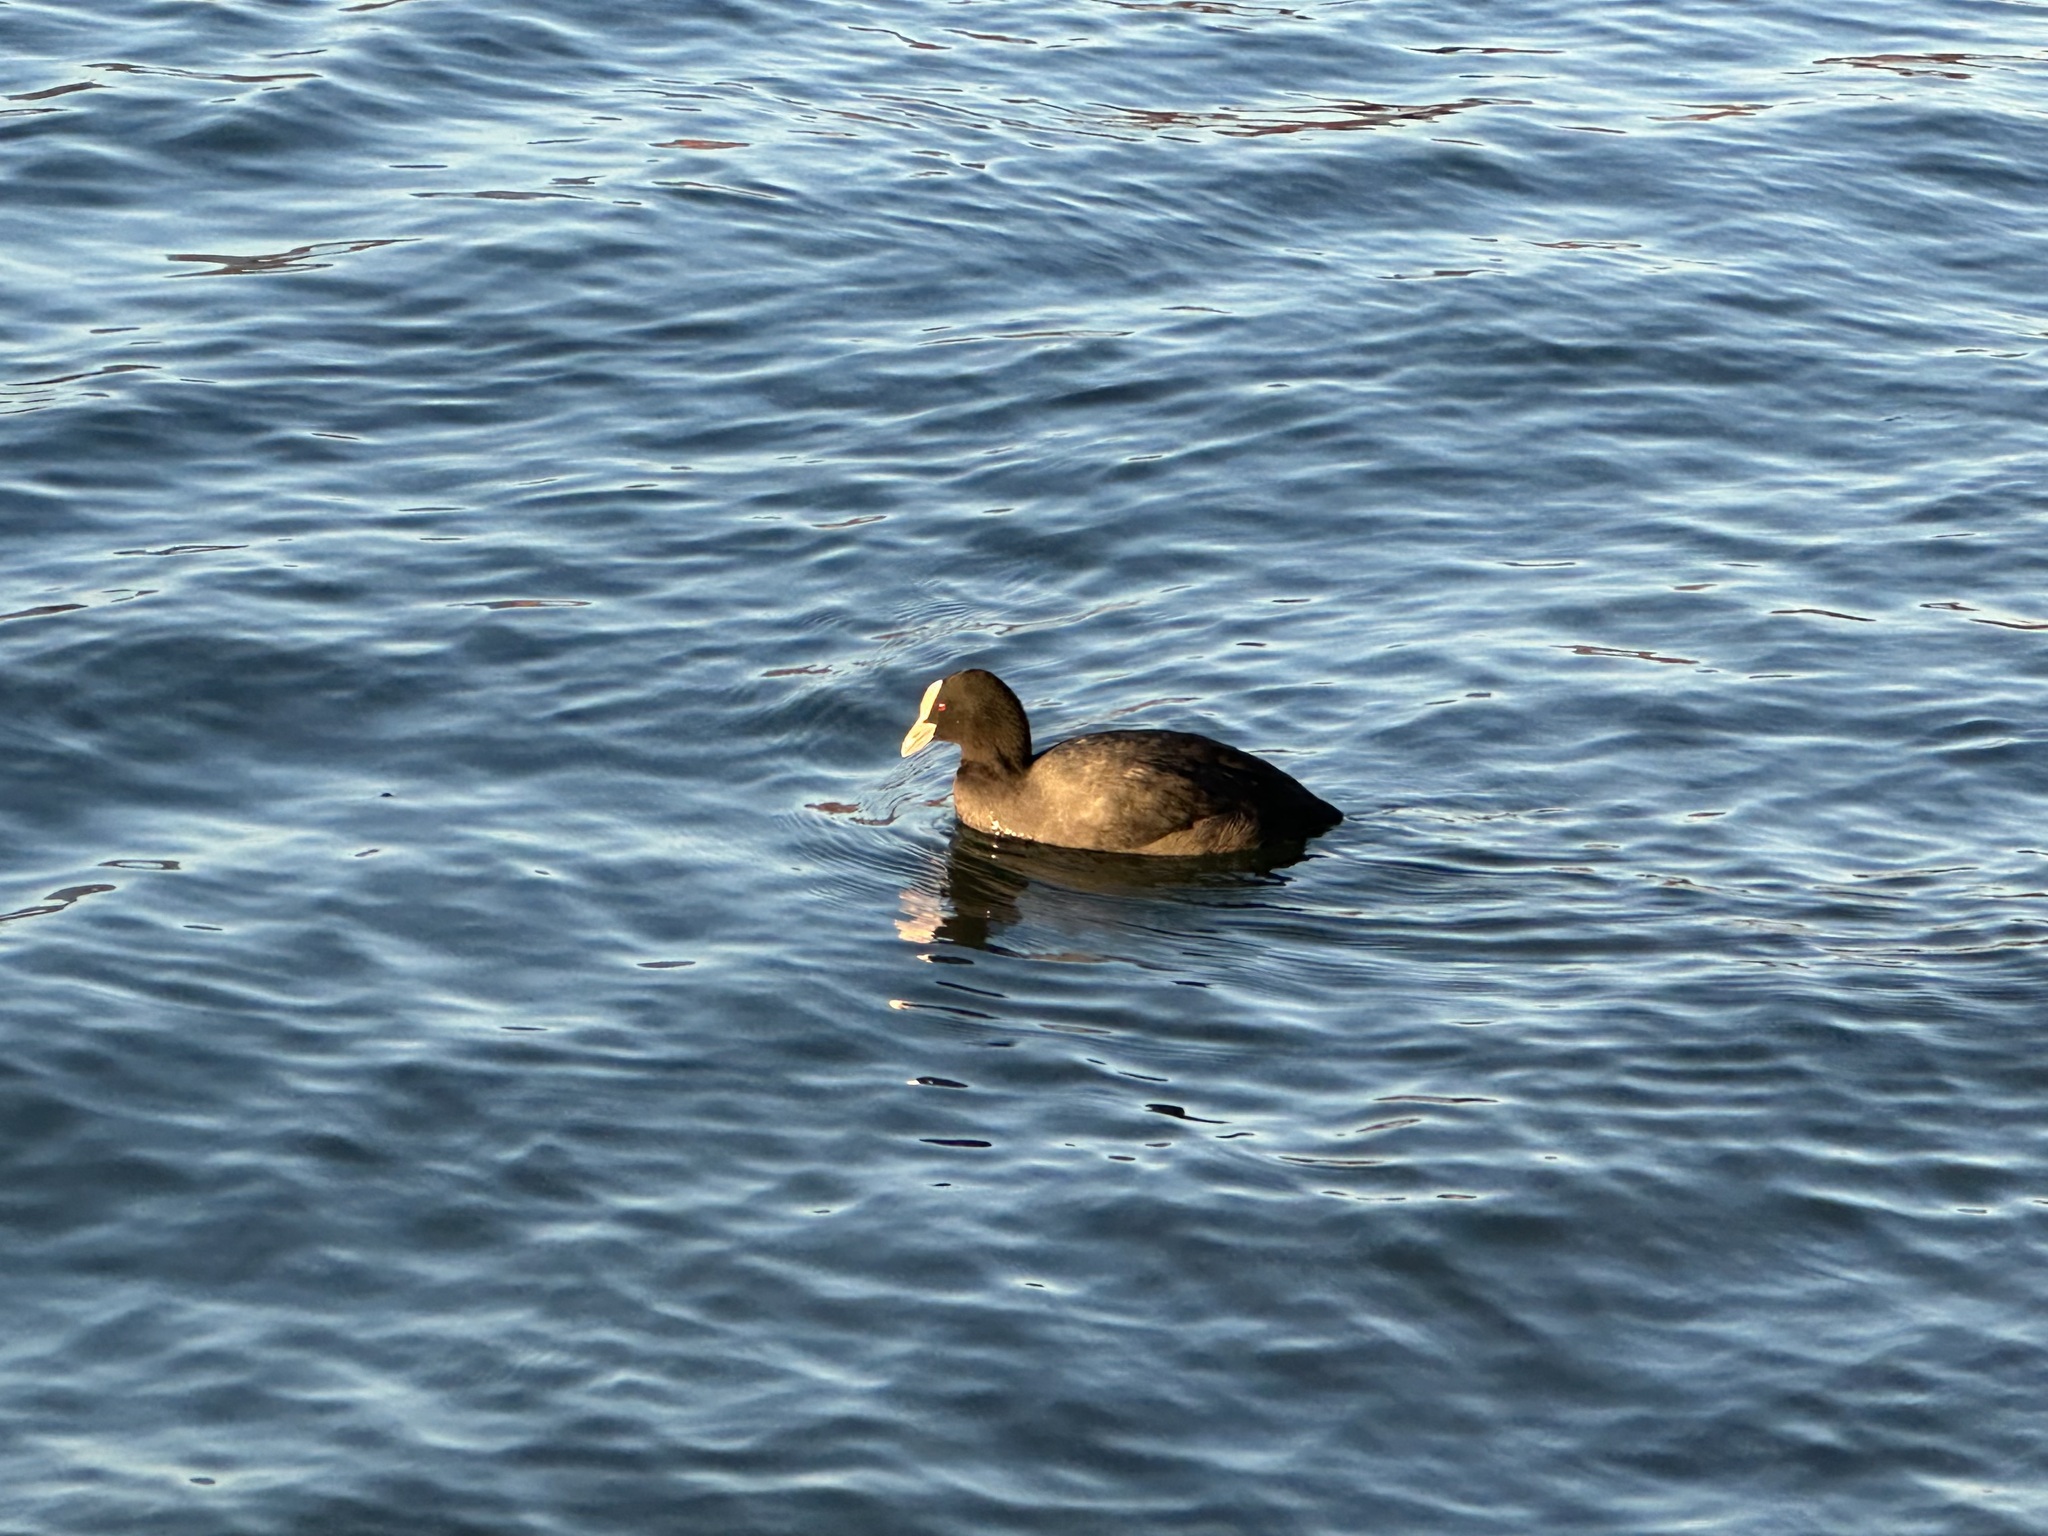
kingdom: Animalia
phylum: Chordata
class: Aves
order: Gruiformes
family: Rallidae
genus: Fulica
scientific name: Fulica atra
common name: Eurasian coot
